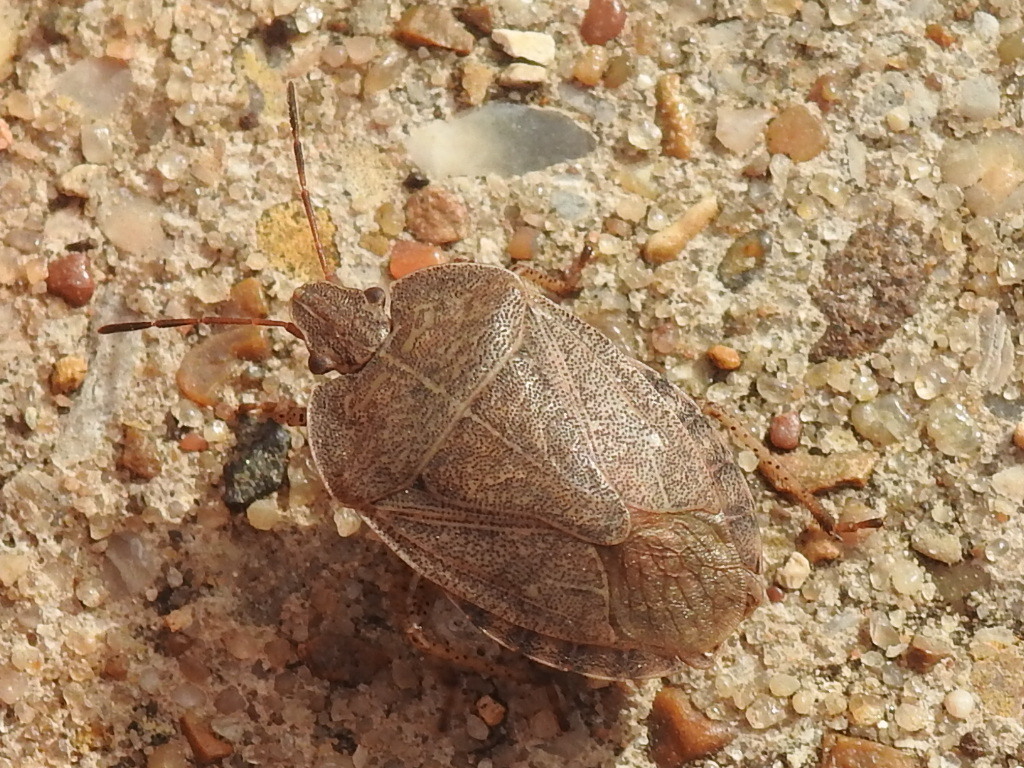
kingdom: Animalia
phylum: Arthropoda
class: Insecta
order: Hemiptera
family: Pentatomidae
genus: Menecles
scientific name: Menecles insertus
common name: Elf shoe stink bug
